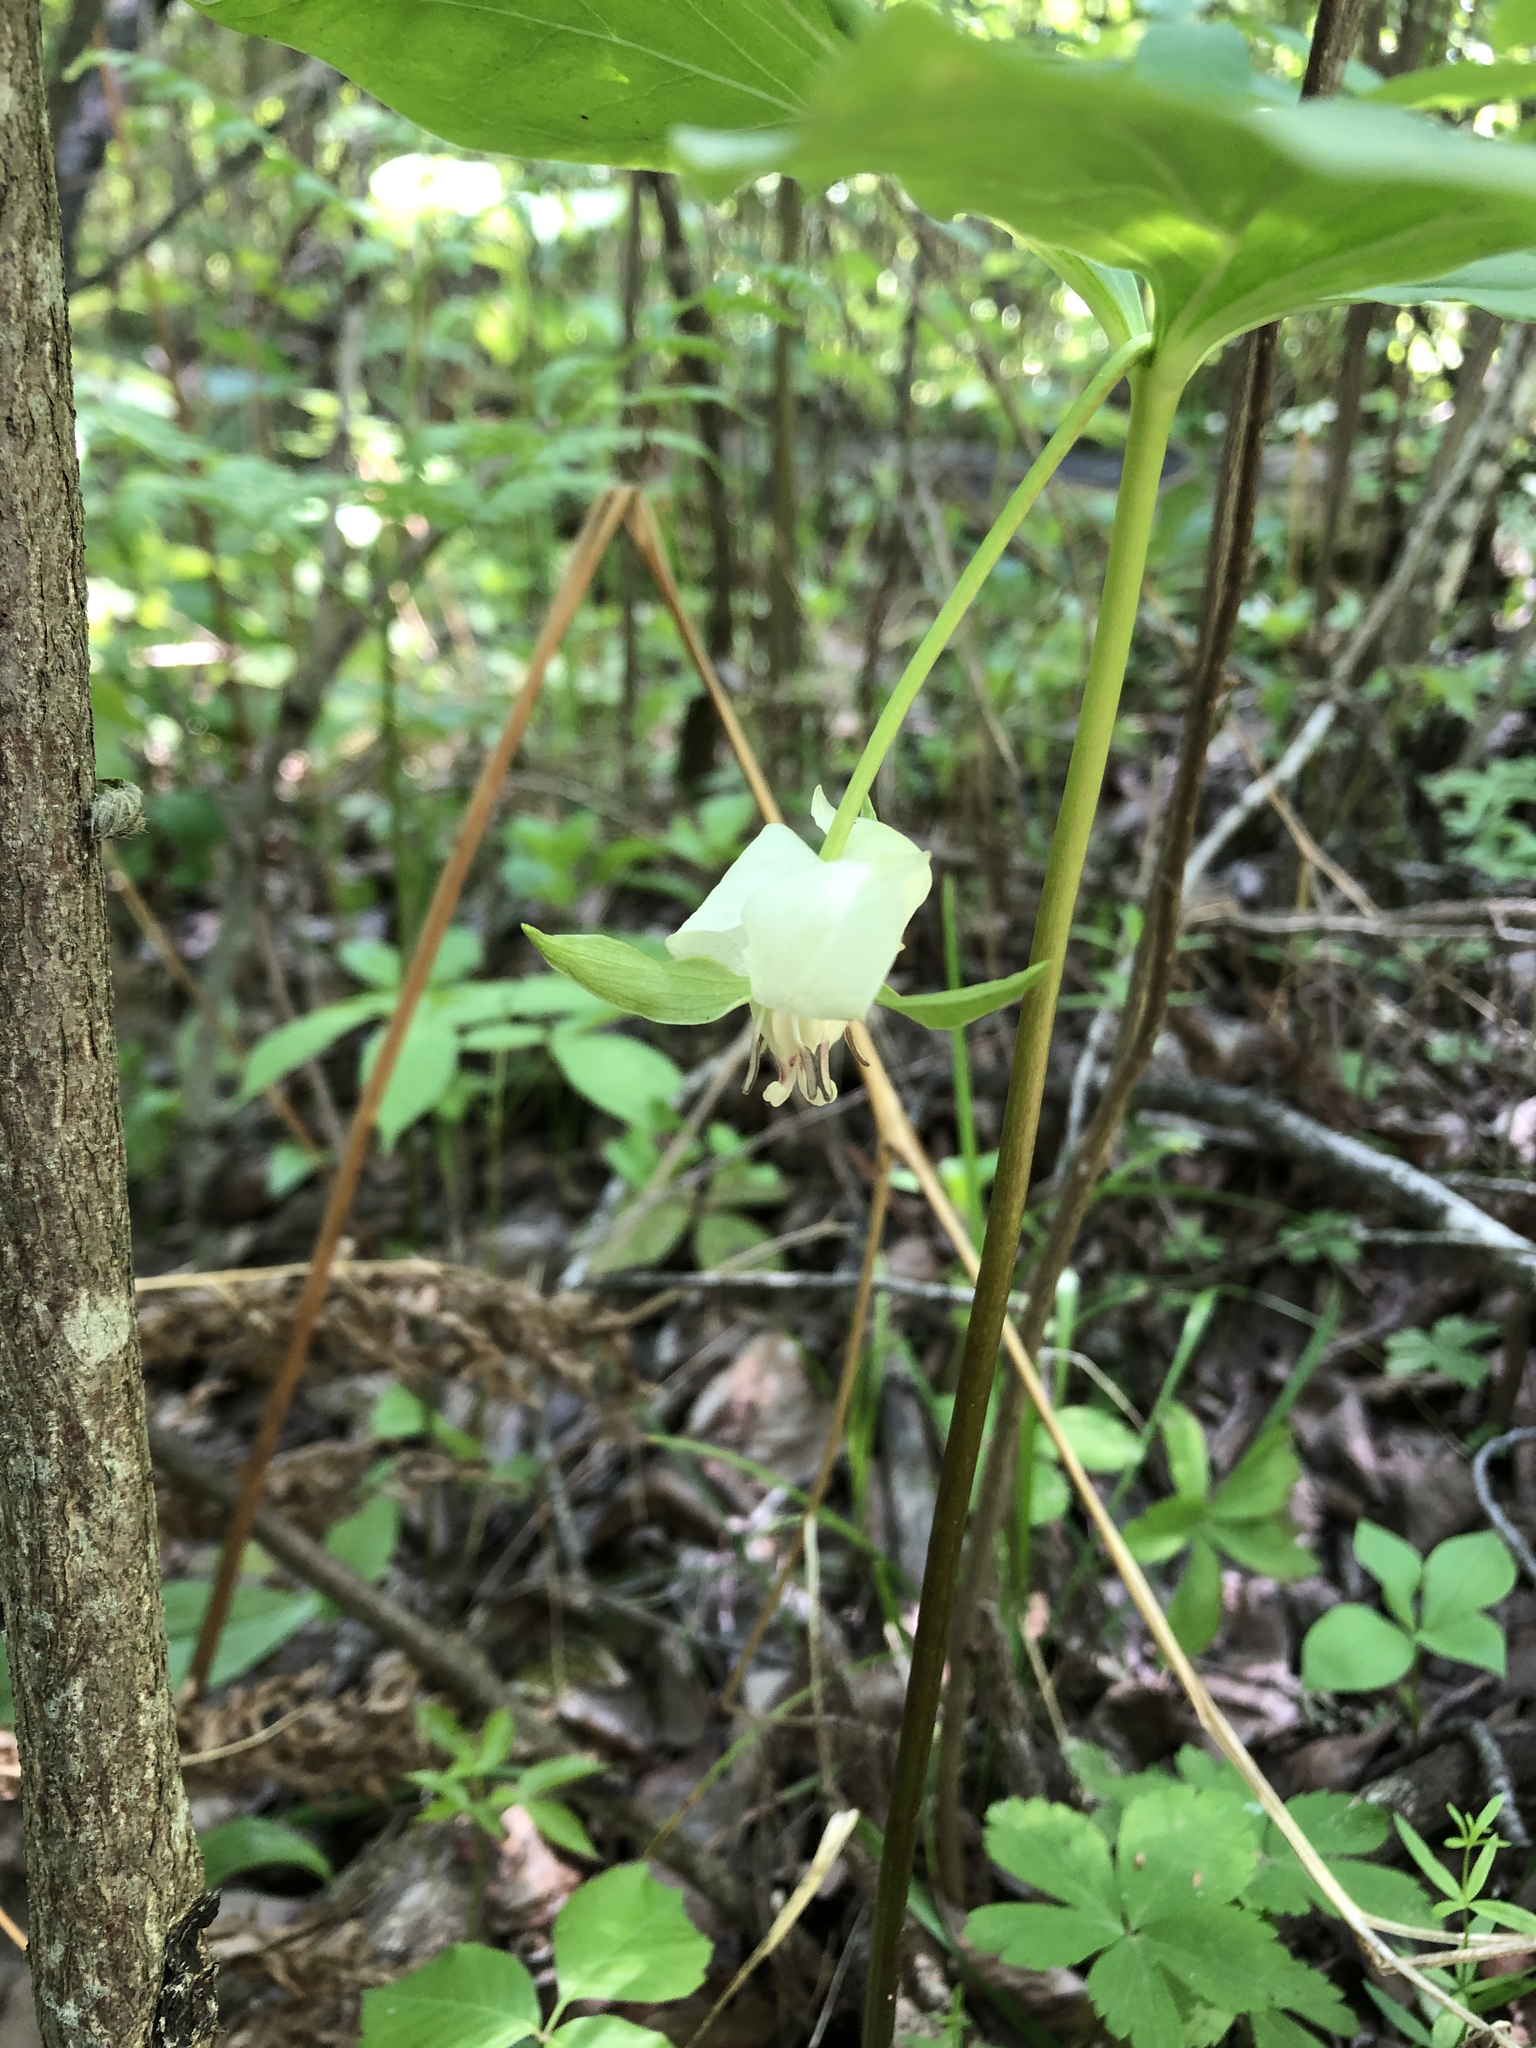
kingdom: Plantae
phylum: Tracheophyta
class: Liliopsida
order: Liliales
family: Melanthiaceae
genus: Trillium
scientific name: Trillium cernuum
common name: Nodding trillium
